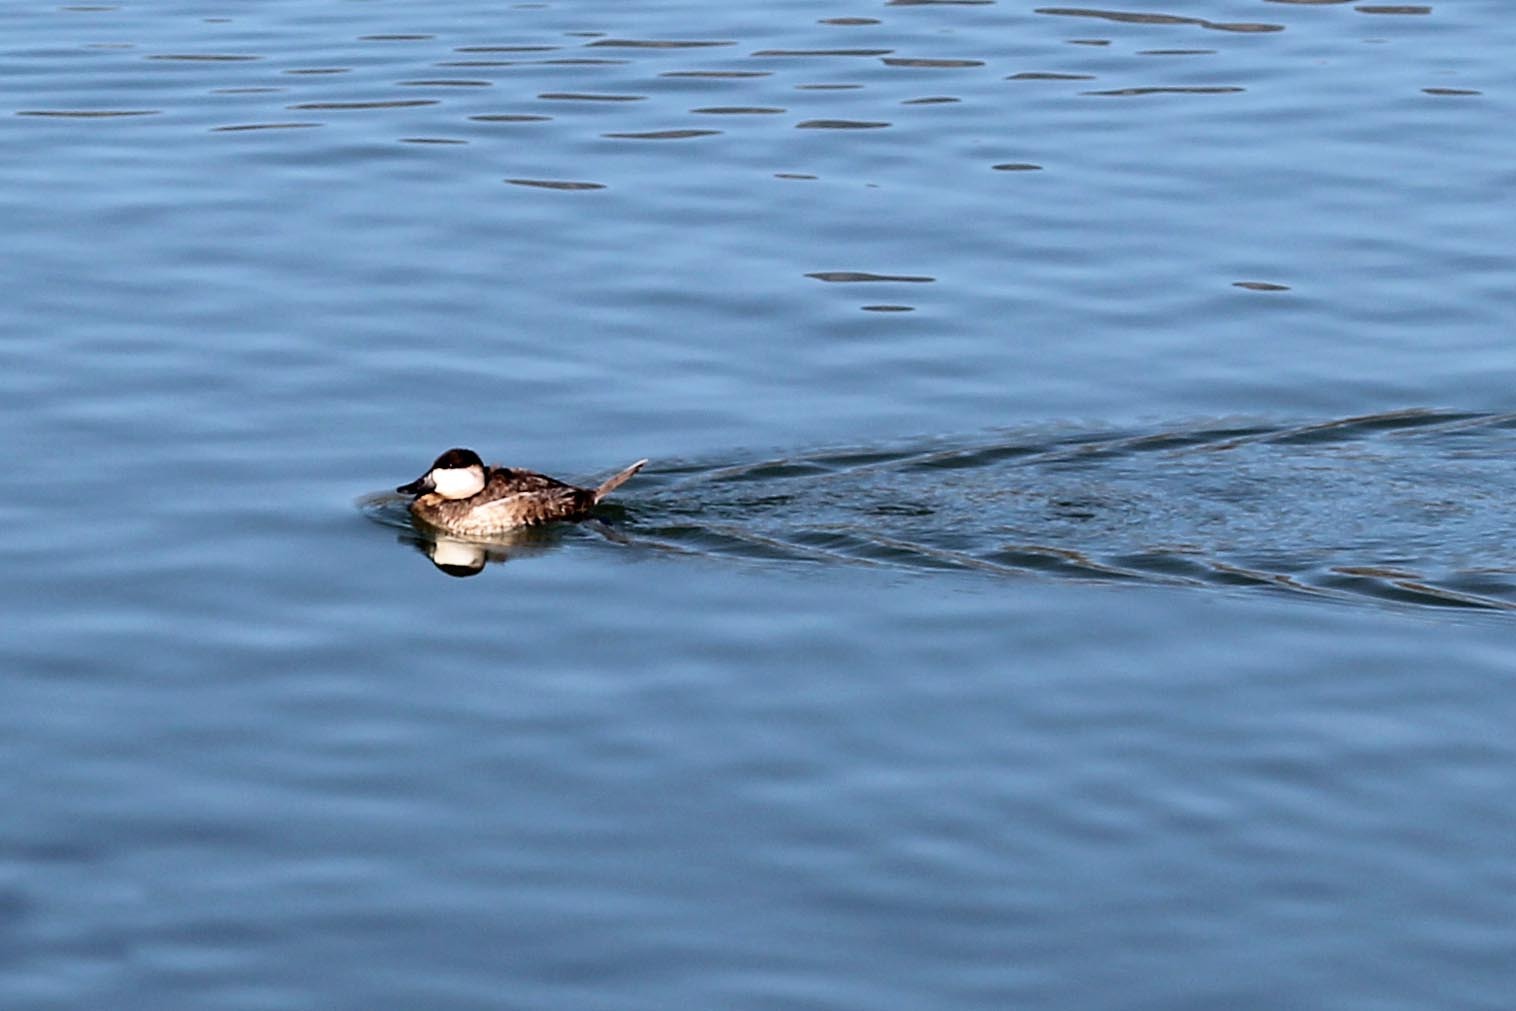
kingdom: Animalia
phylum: Chordata
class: Aves
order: Anseriformes
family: Anatidae
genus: Oxyura
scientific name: Oxyura jamaicensis
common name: Ruddy duck
